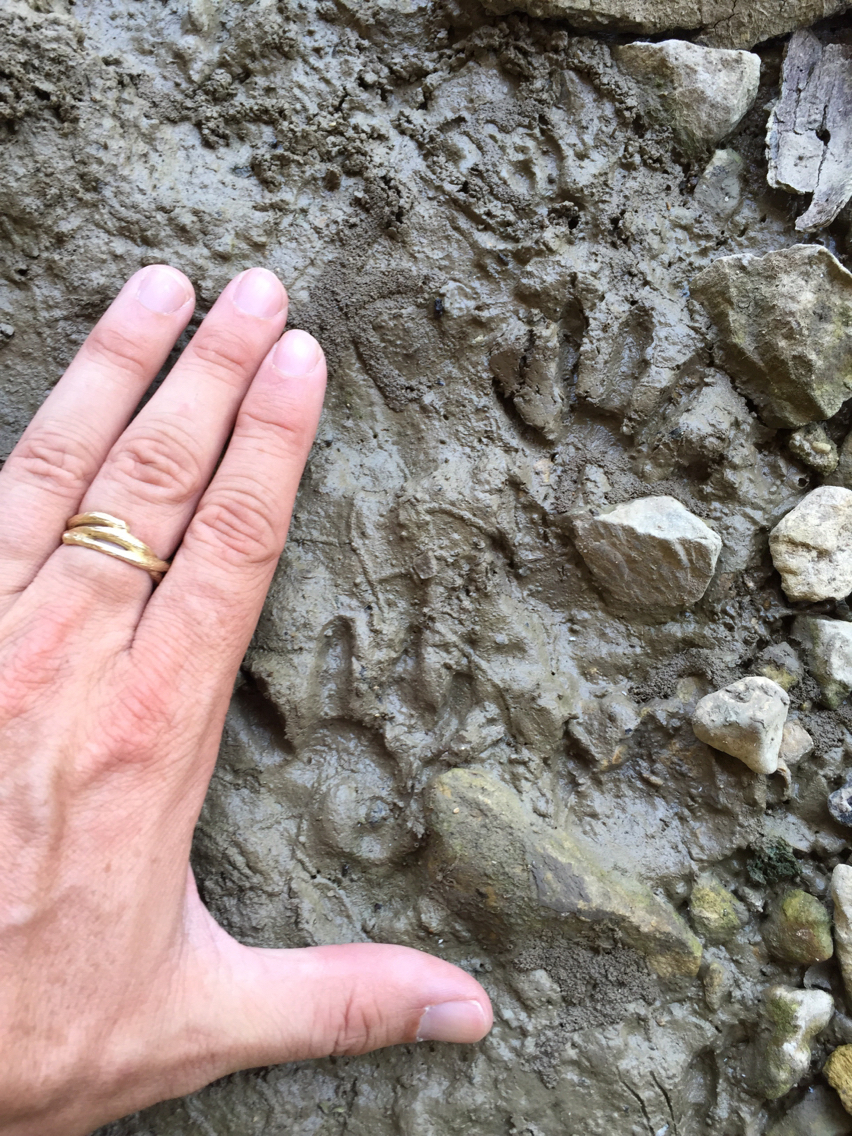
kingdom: Animalia
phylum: Chordata
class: Mammalia
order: Carnivora
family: Procyonidae
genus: Procyon
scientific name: Procyon lotor
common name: Raccoon
